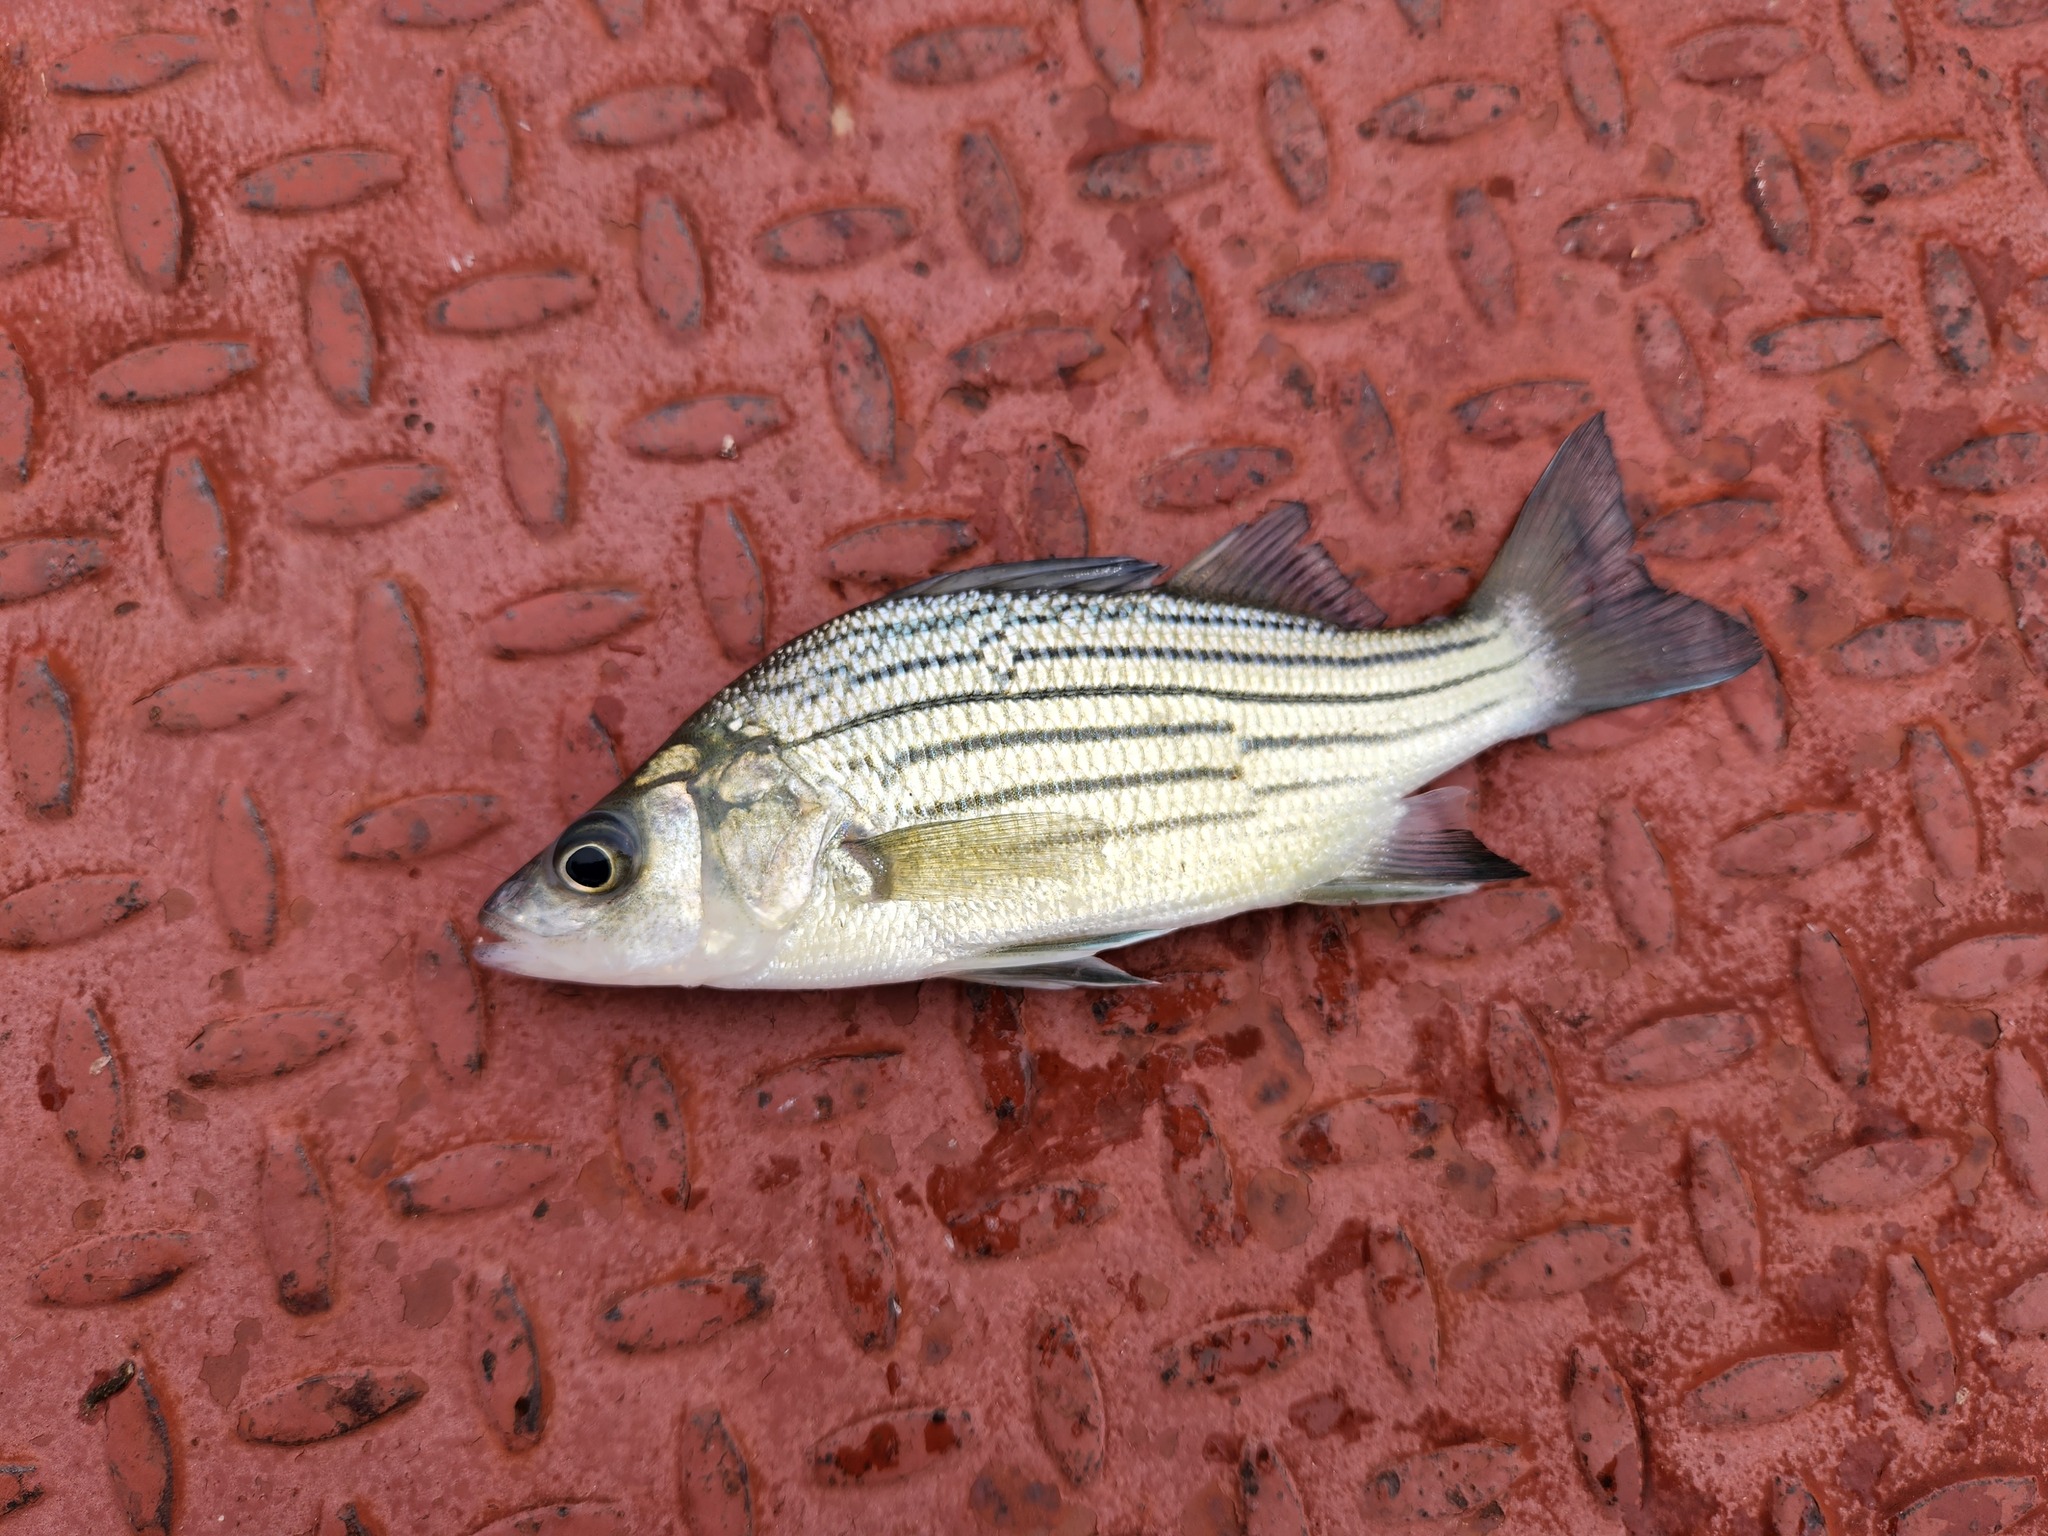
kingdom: Animalia
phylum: Chordata
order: Perciformes
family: Moronidae
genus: Morone
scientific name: Morone mississippiensis
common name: Yellow bass
